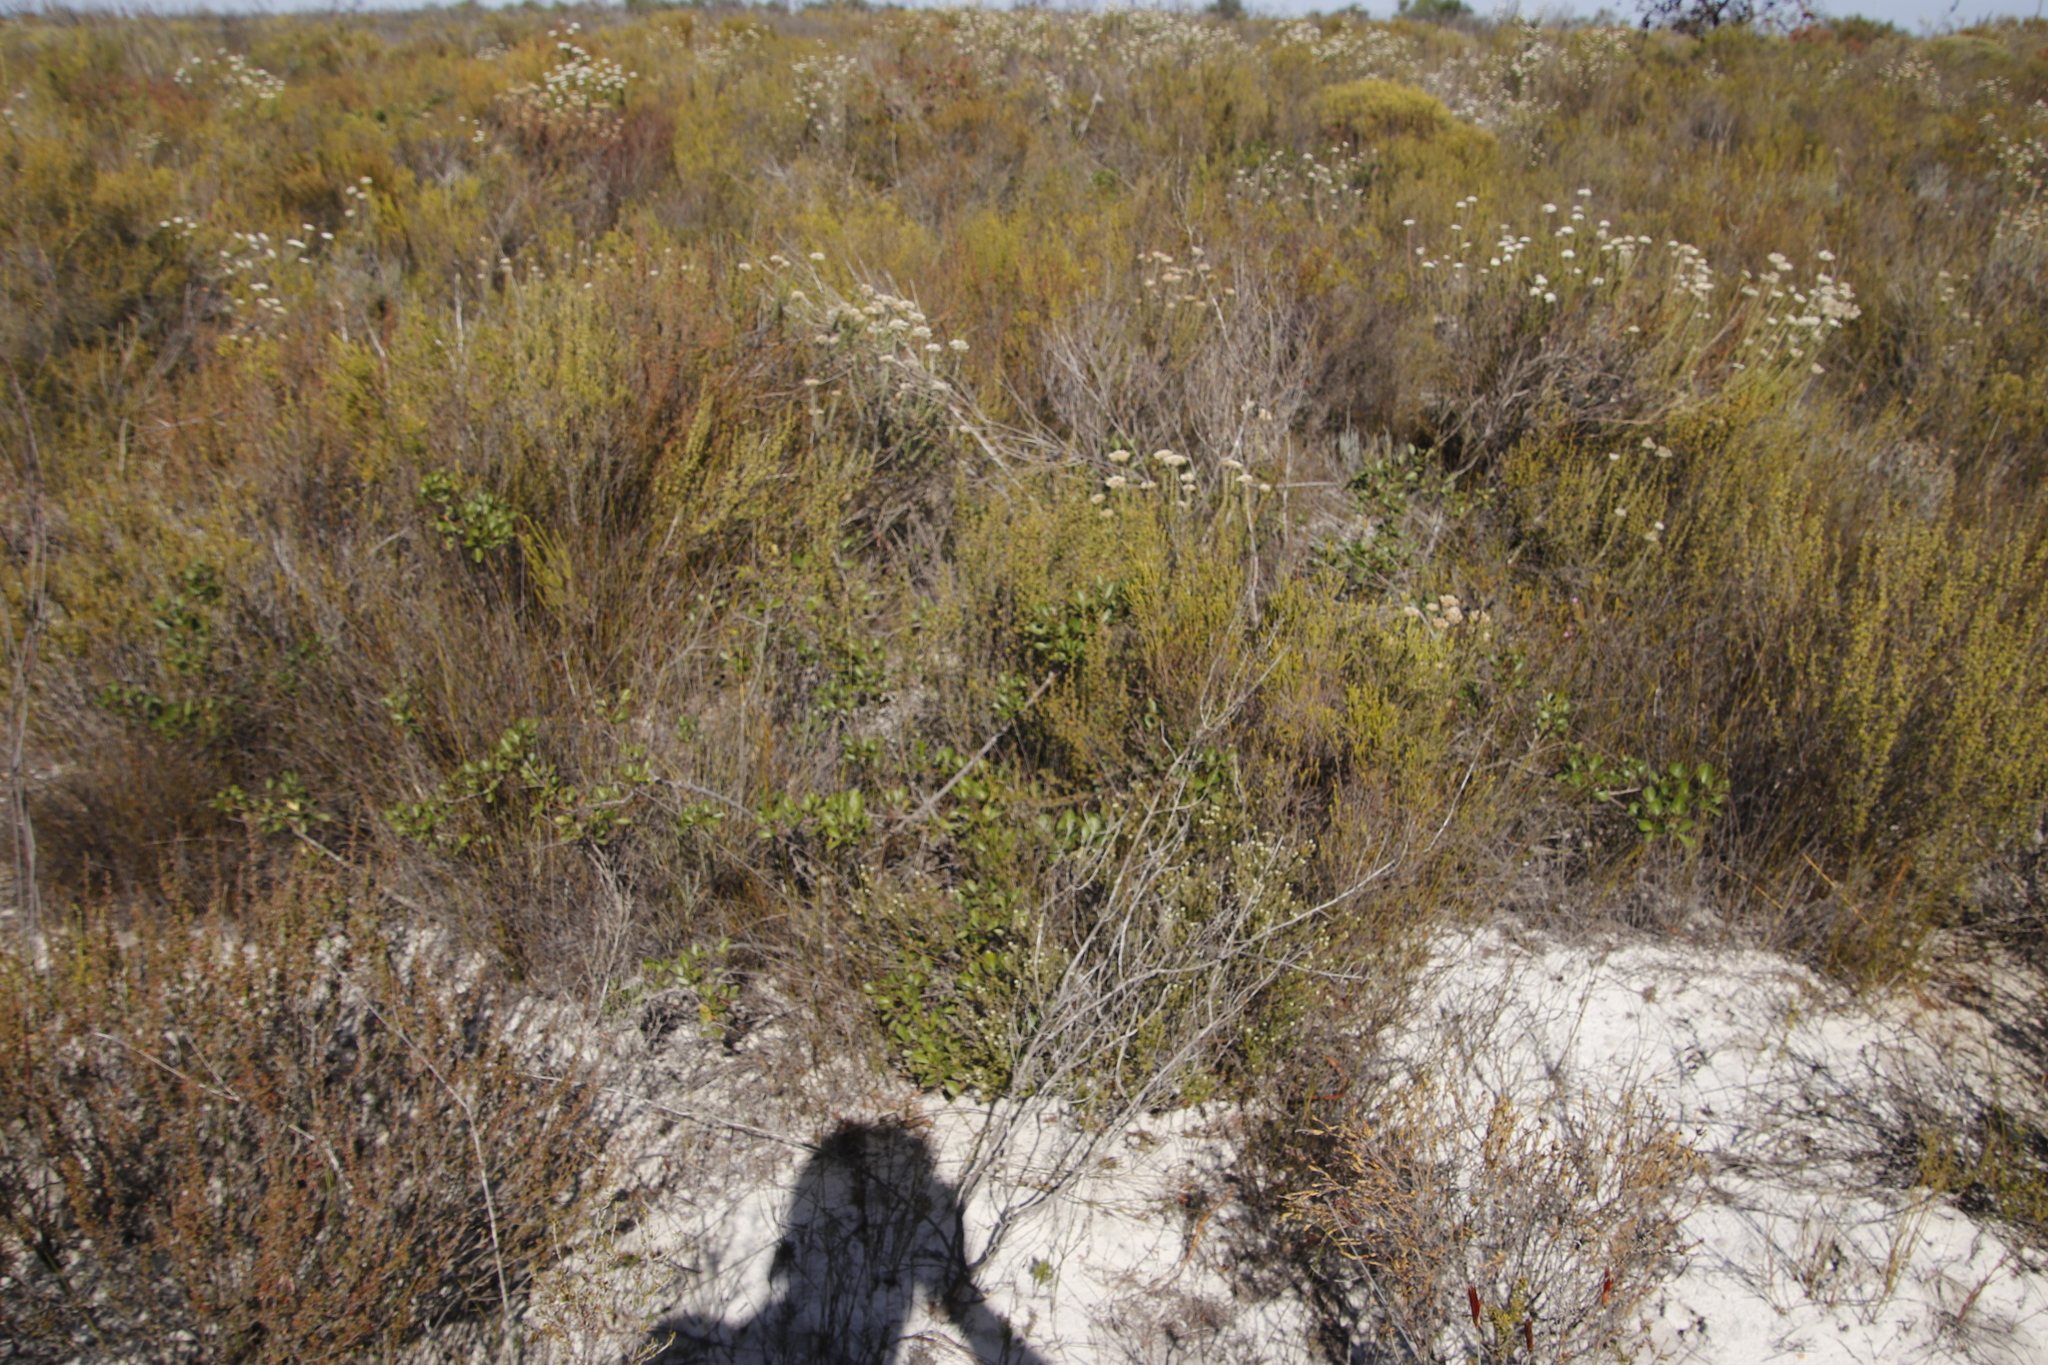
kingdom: Plantae
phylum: Tracheophyta
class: Magnoliopsida
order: Sapindales
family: Anacardiaceae
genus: Searsia
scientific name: Searsia laevigata
